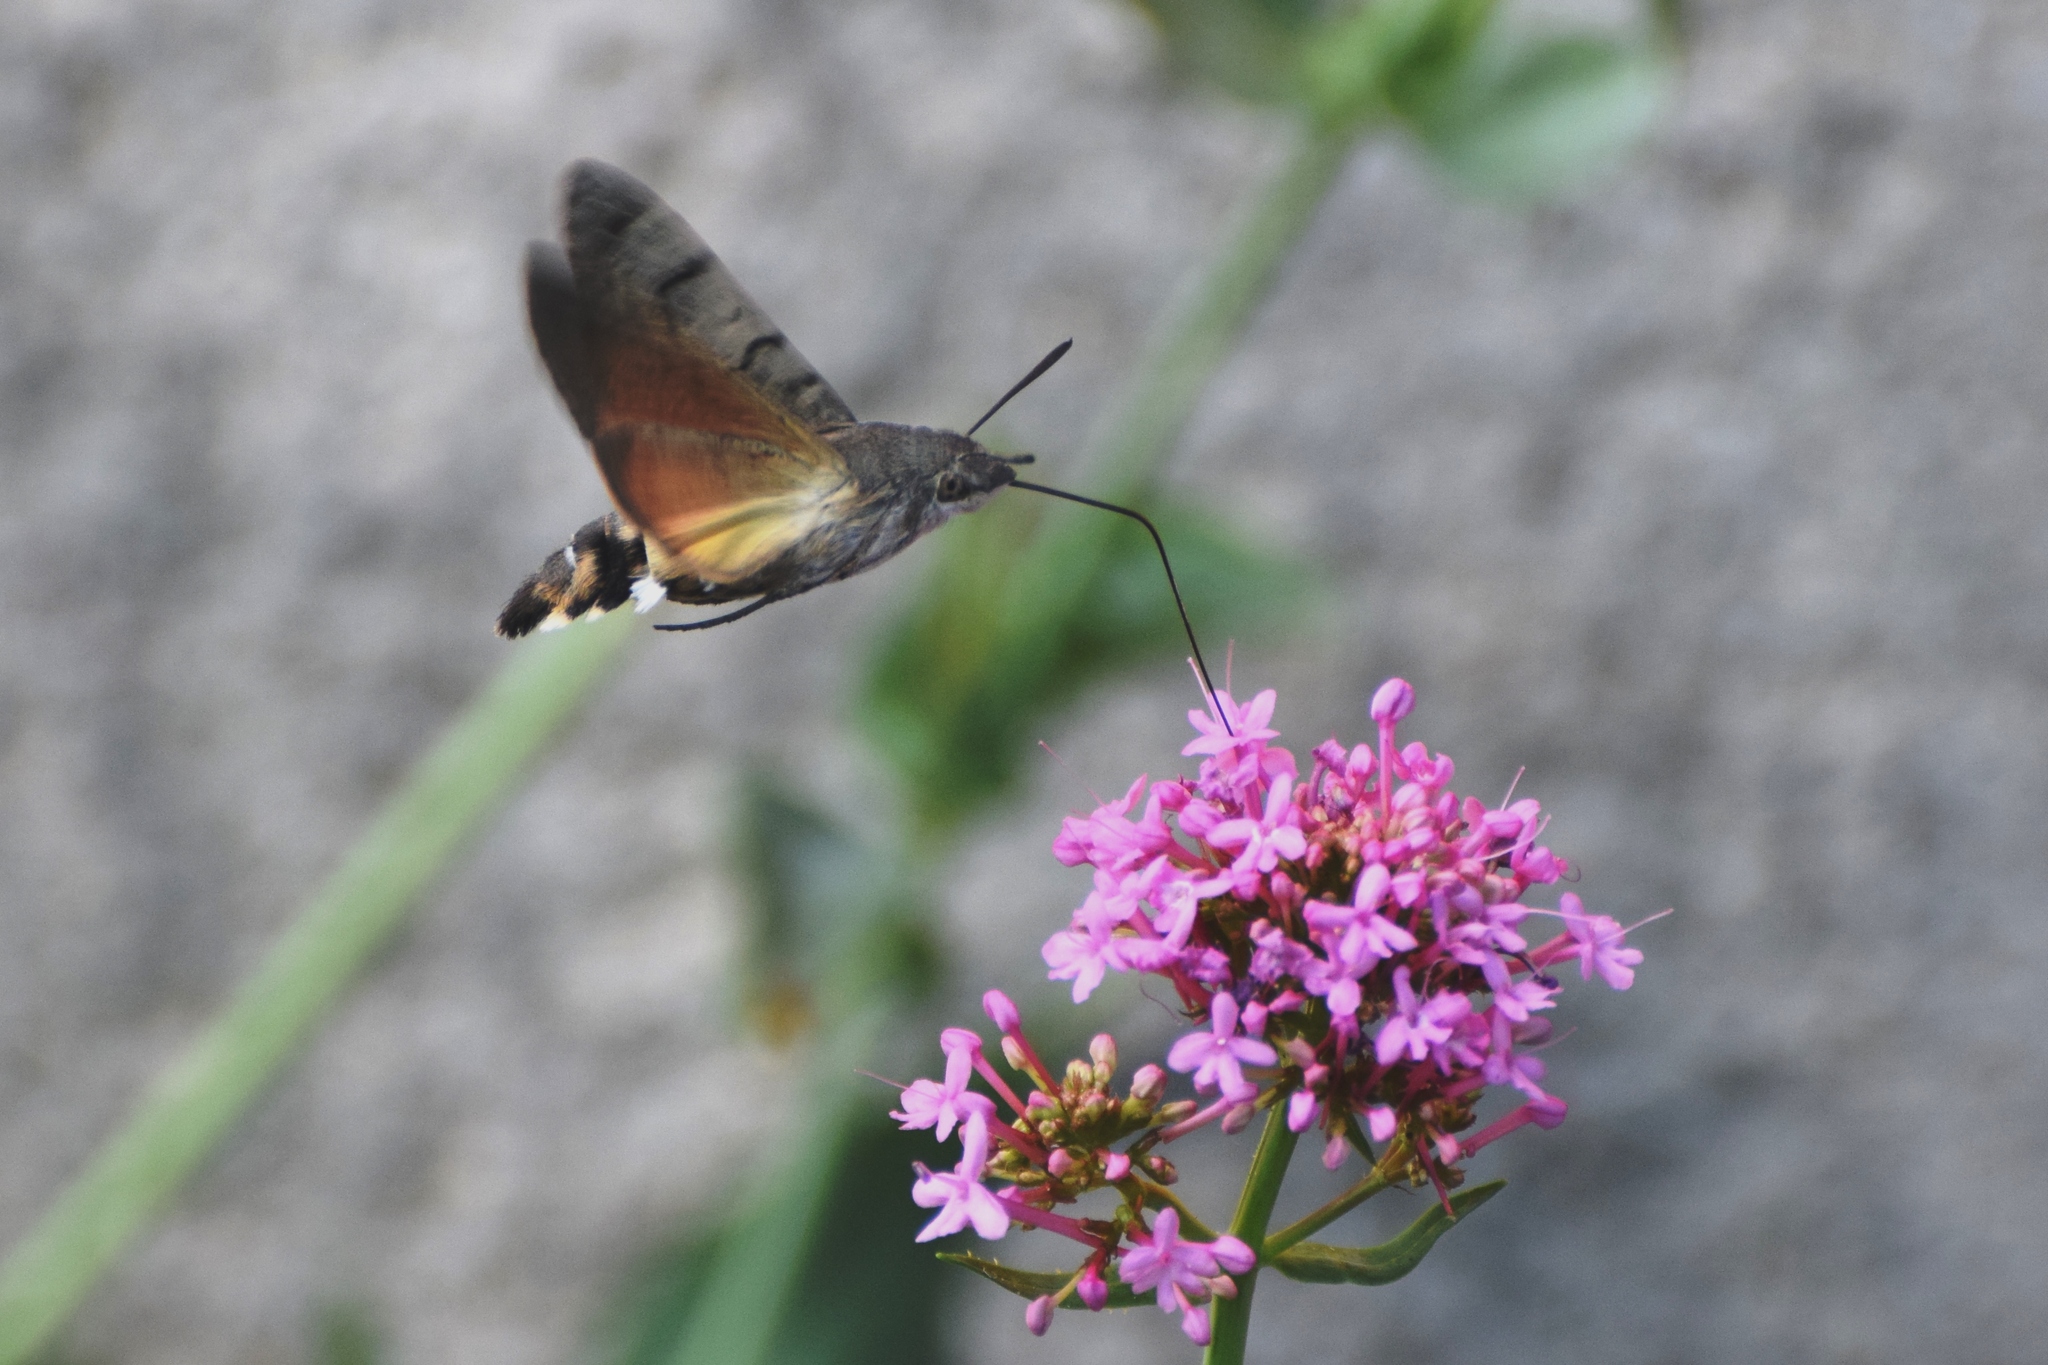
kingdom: Animalia
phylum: Arthropoda
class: Insecta
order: Lepidoptera
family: Sphingidae
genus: Macroglossum
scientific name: Macroglossum stellatarum
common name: Humming-bird hawk-moth
